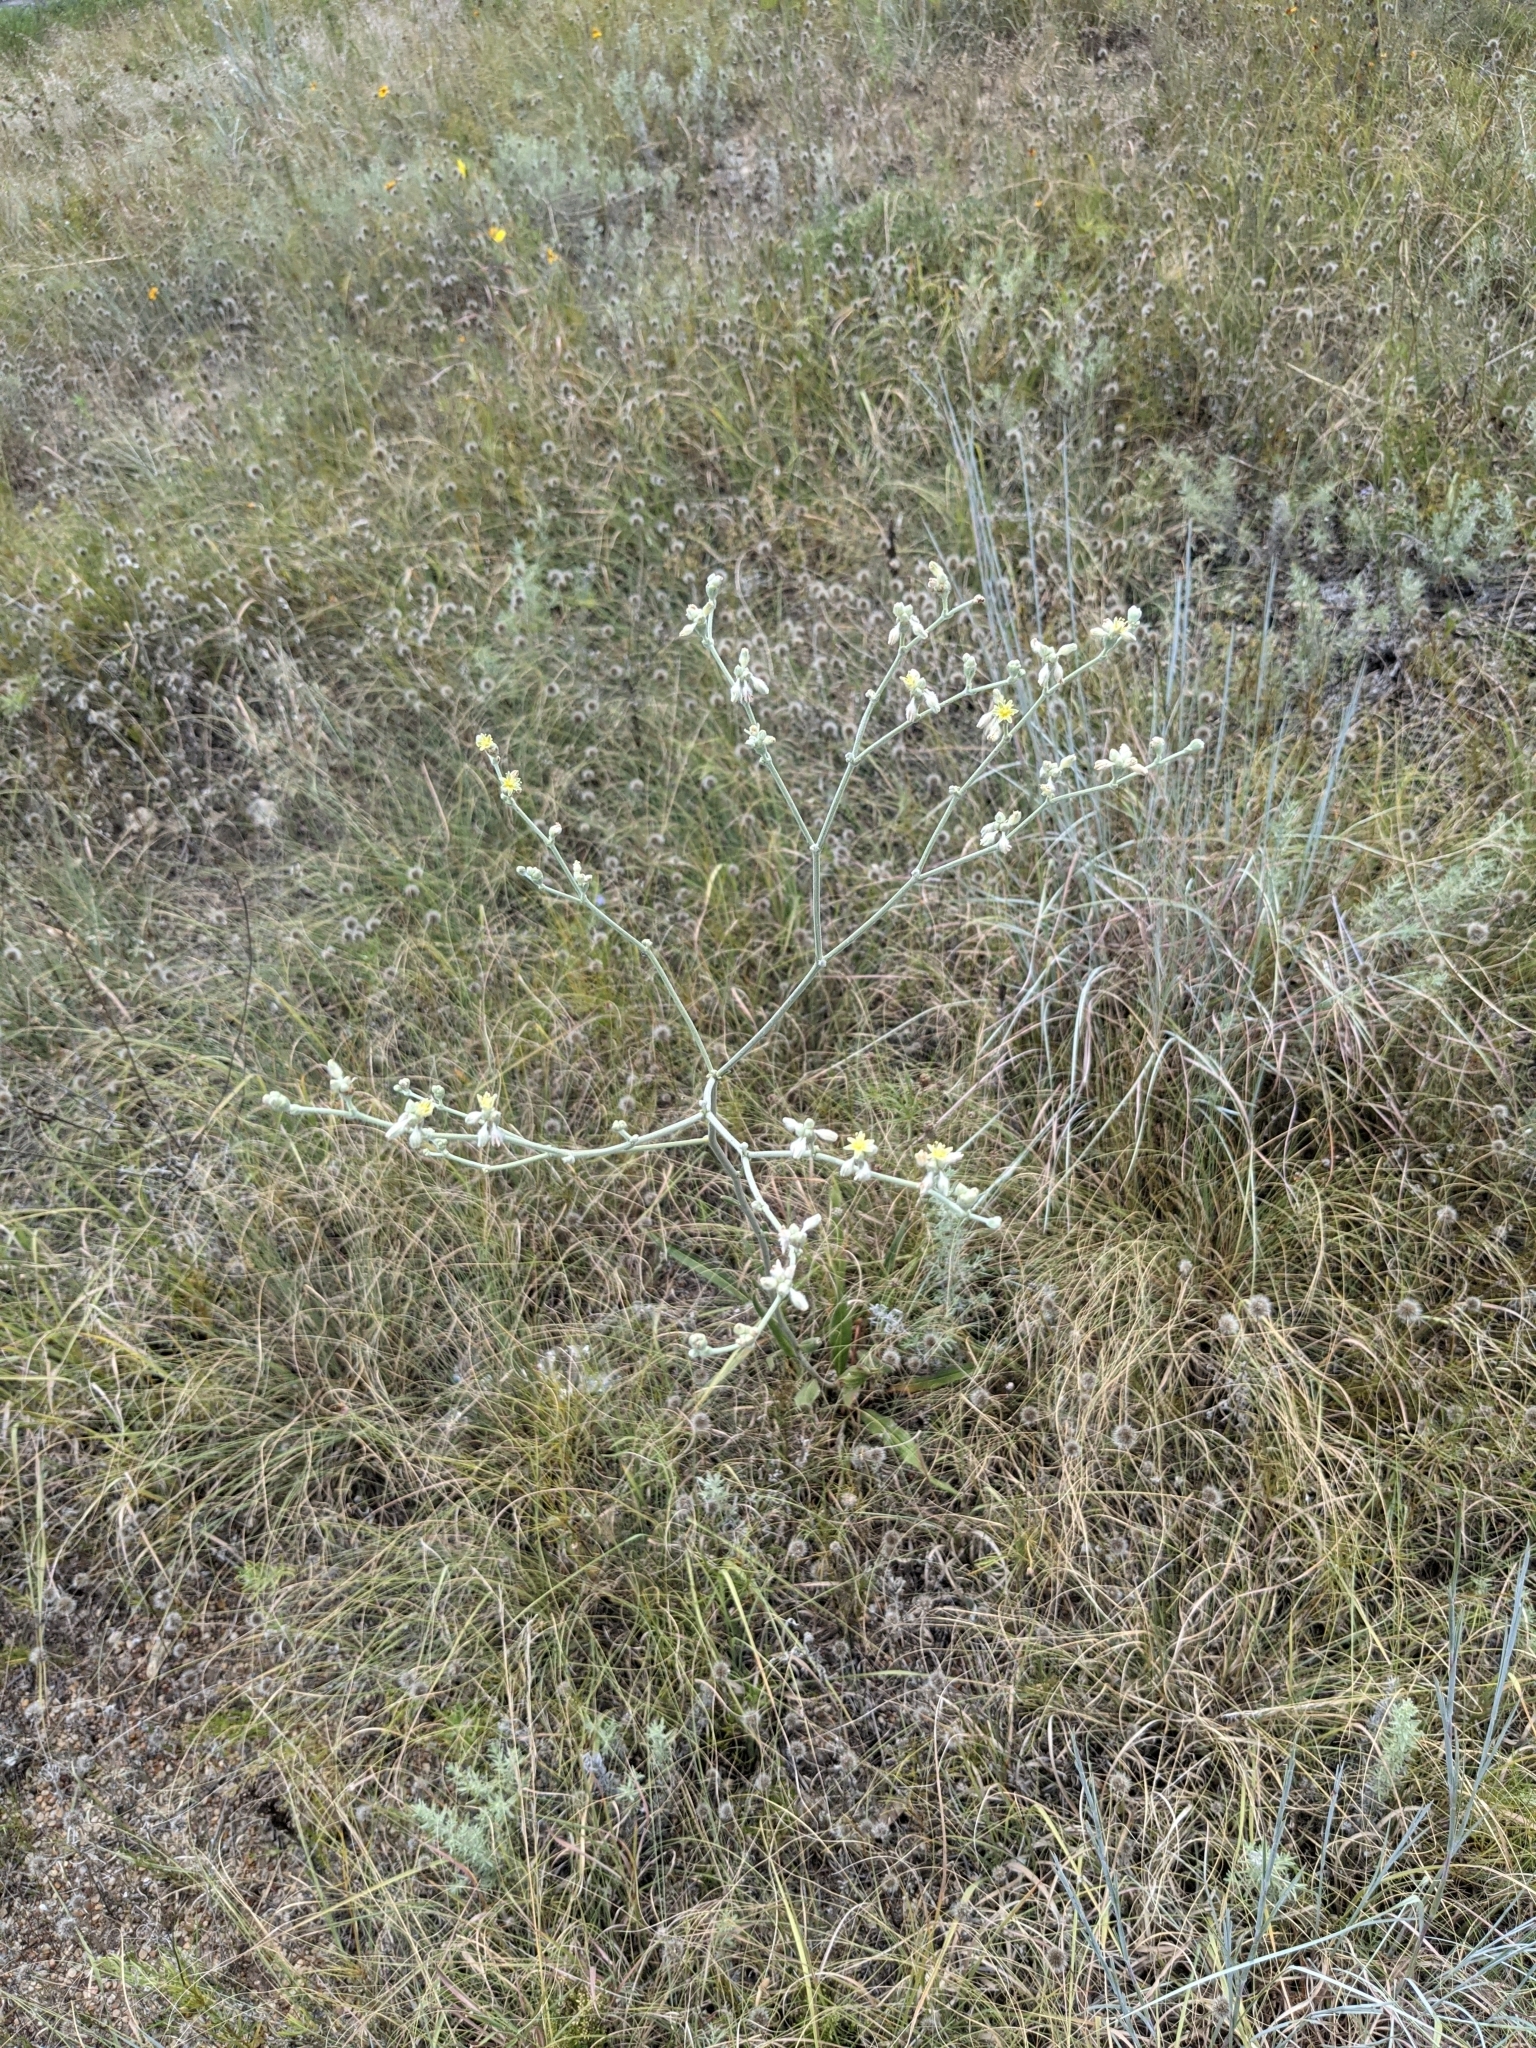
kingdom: Plantae
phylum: Tracheophyta
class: Magnoliopsida
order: Caryophyllales
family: Polygonaceae
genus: Eriogonum
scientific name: Eriogonum longifolium
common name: Longleaf wild buckwheat
